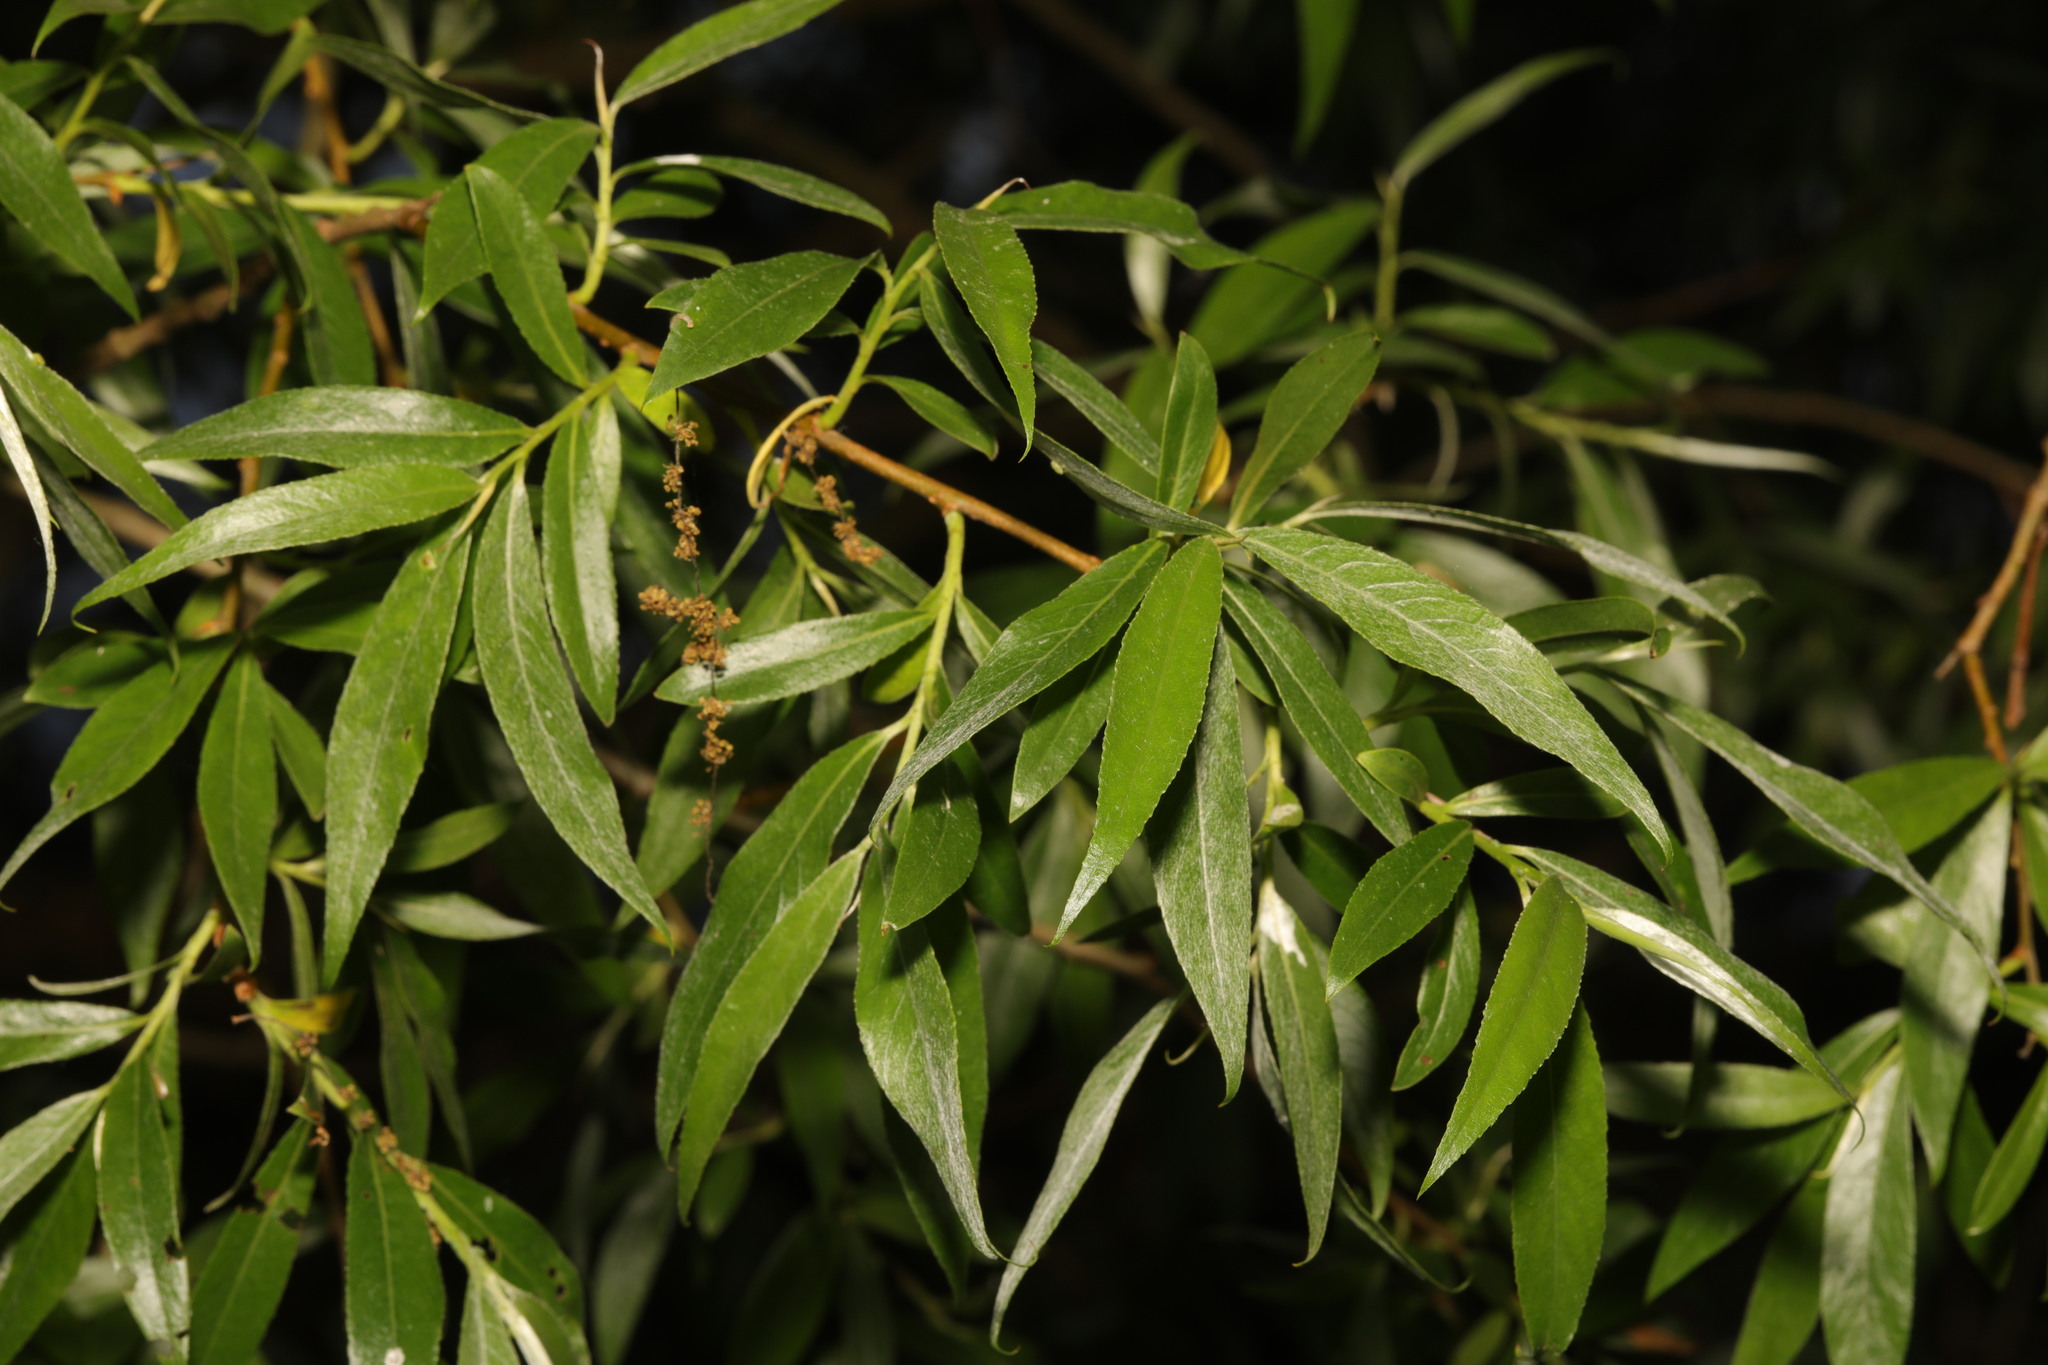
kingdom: Plantae
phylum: Tracheophyta
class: Magnoliopsida
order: Malpighiales
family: Salicaceae
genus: Salix
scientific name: Salix fragilis
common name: Crack willow
